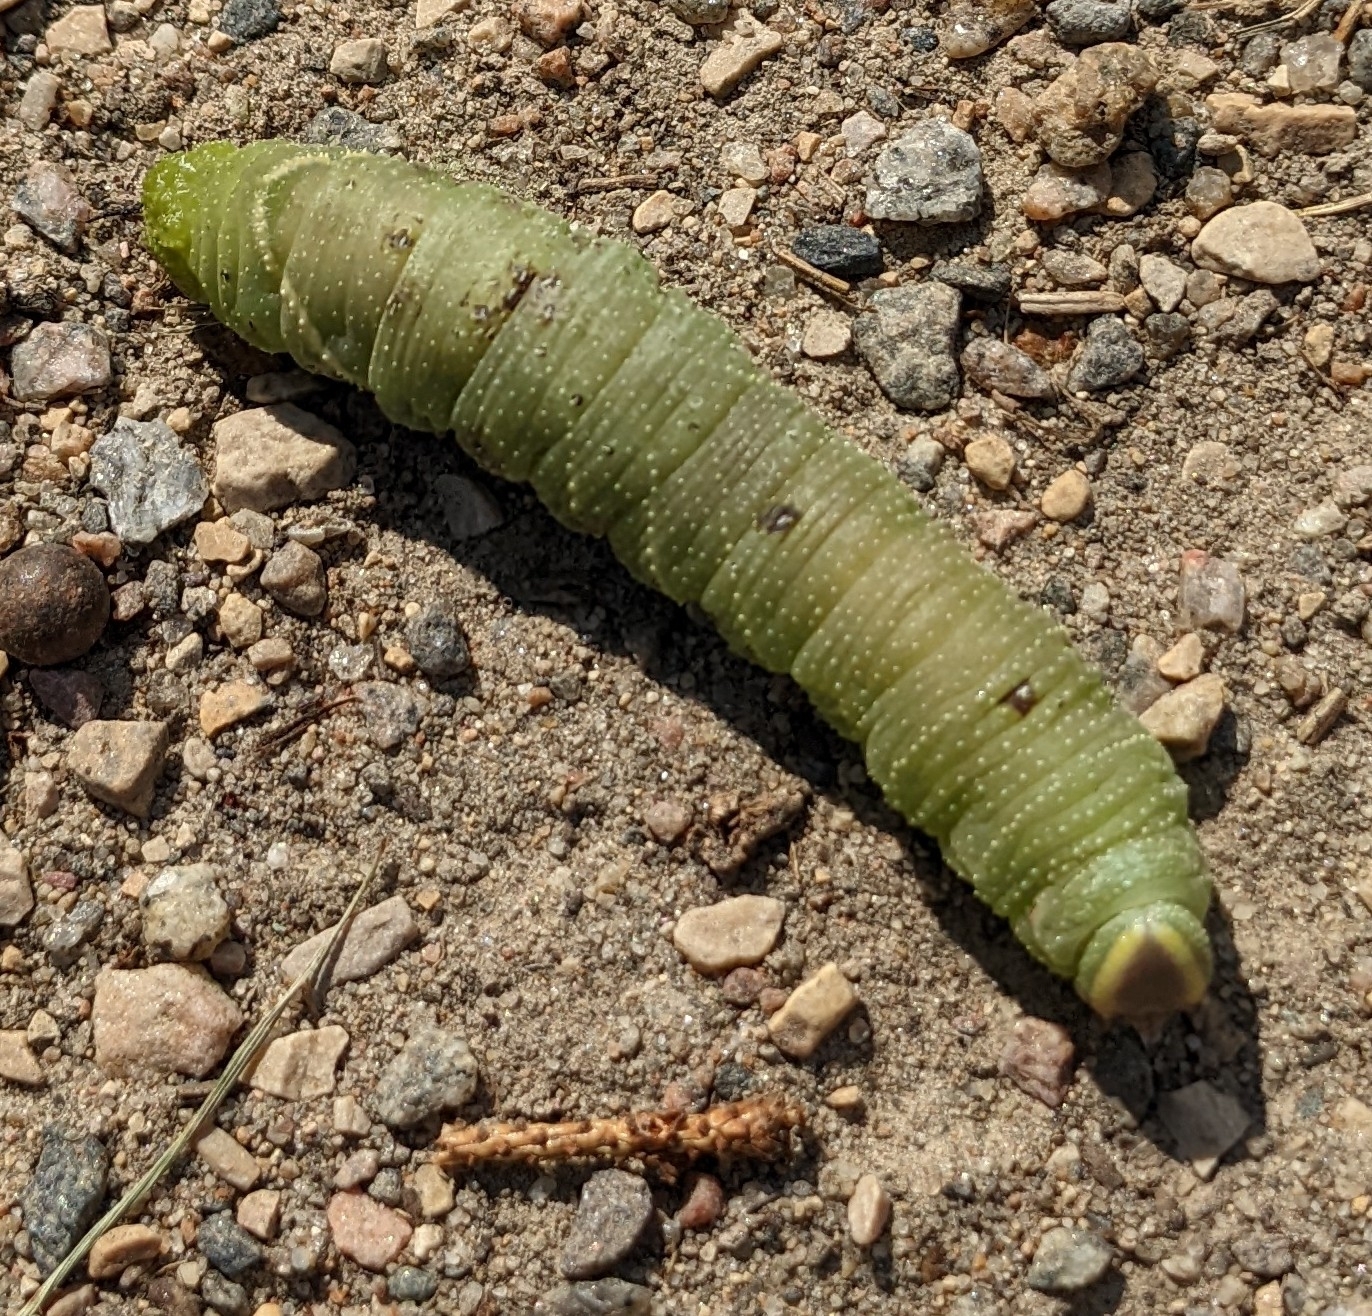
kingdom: Animalia
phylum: Arthropoda
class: Insecta
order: Lepidoptera
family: Sphingidae
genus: Pachysphinx
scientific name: Pachysphinx modesta
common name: Big poplar sphinx
